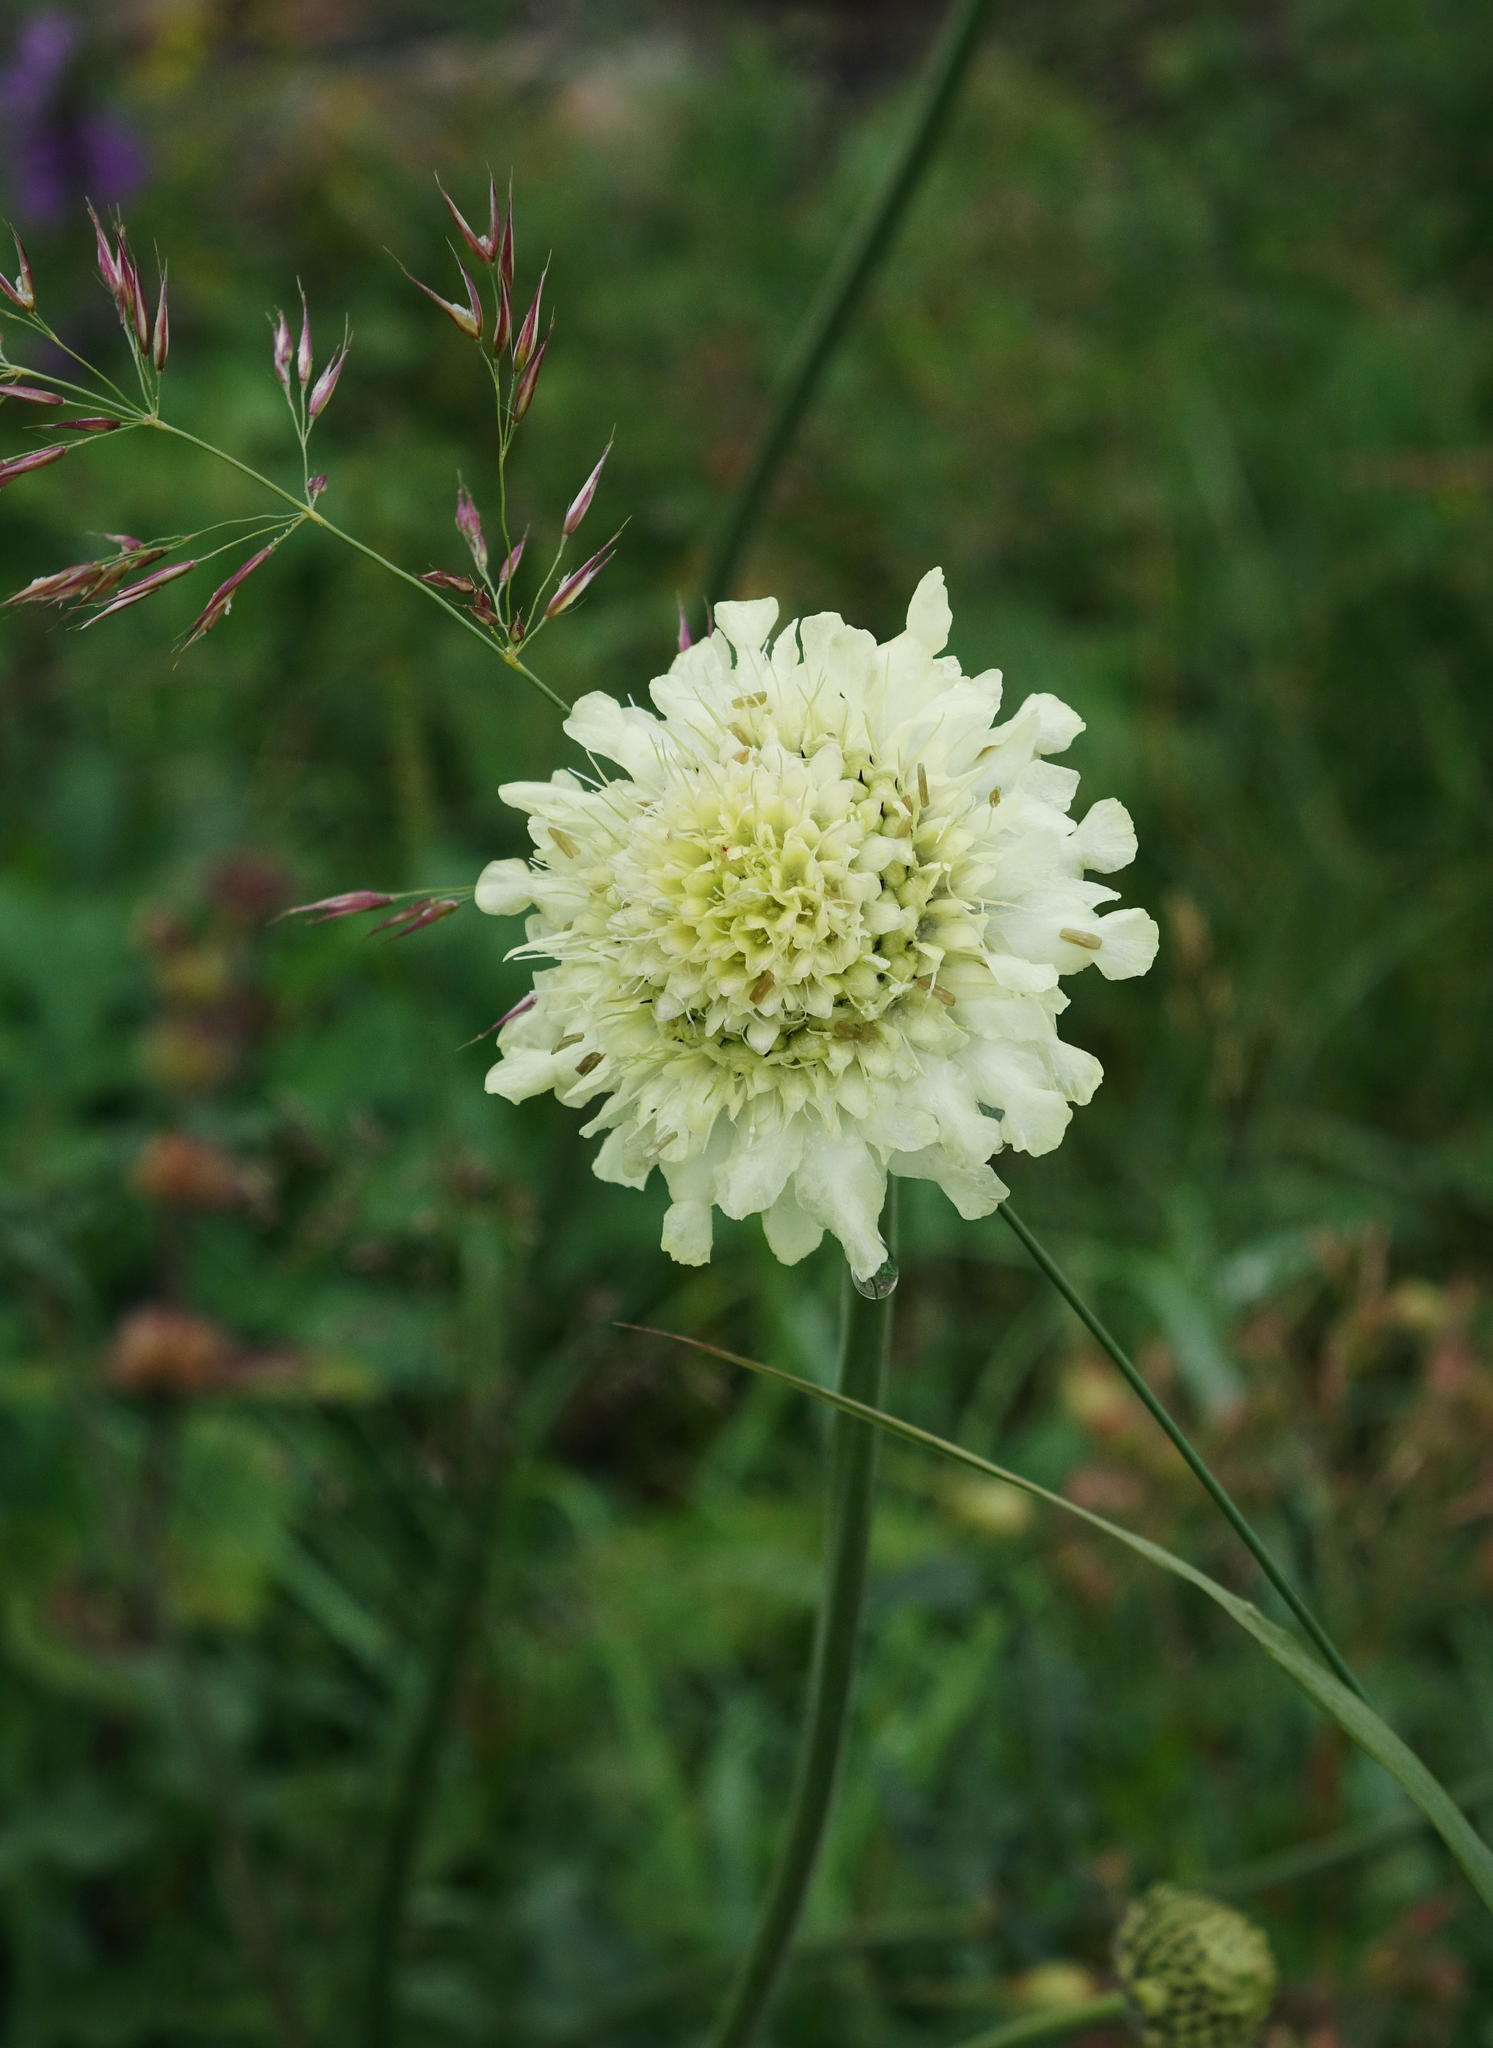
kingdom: Plantae
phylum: Tracheophyta
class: Magnoliopsida
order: Dipsacales
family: Caprifoliaceae
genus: Cephalaria
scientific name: Cephalaria gigantea
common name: Tatarian cephalaria
